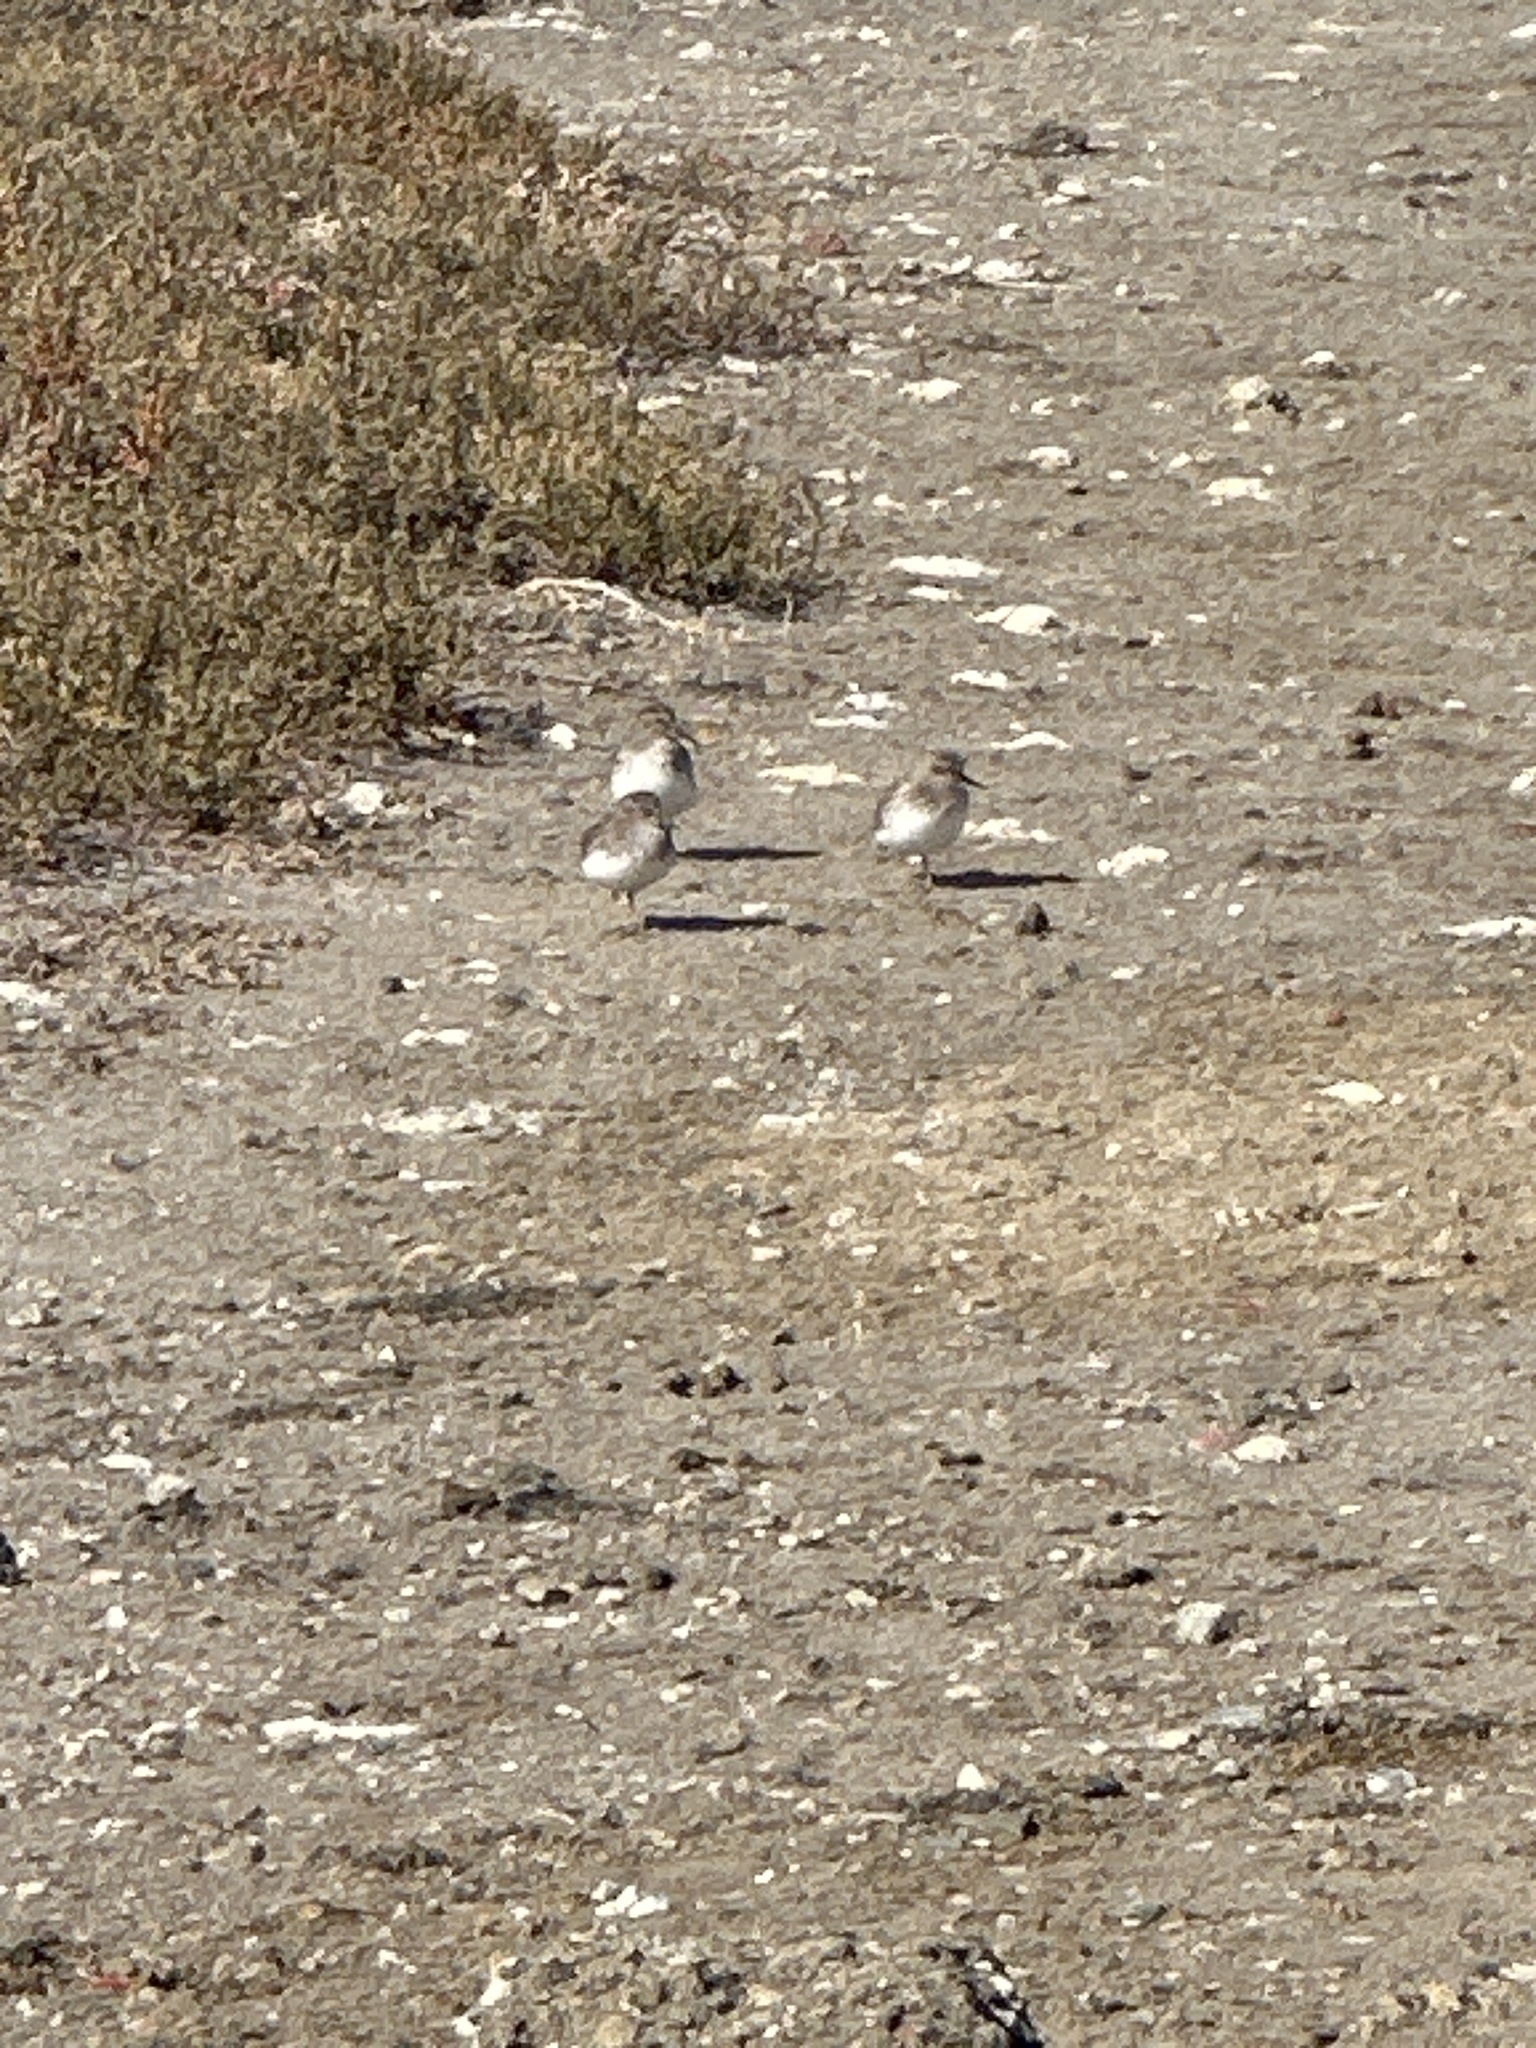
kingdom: Animalia
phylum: Chordata
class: Aves
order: Charadriiformes
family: Scolopacidae
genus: Calidris
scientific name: Calidris minutilla
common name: Least sandpiper
